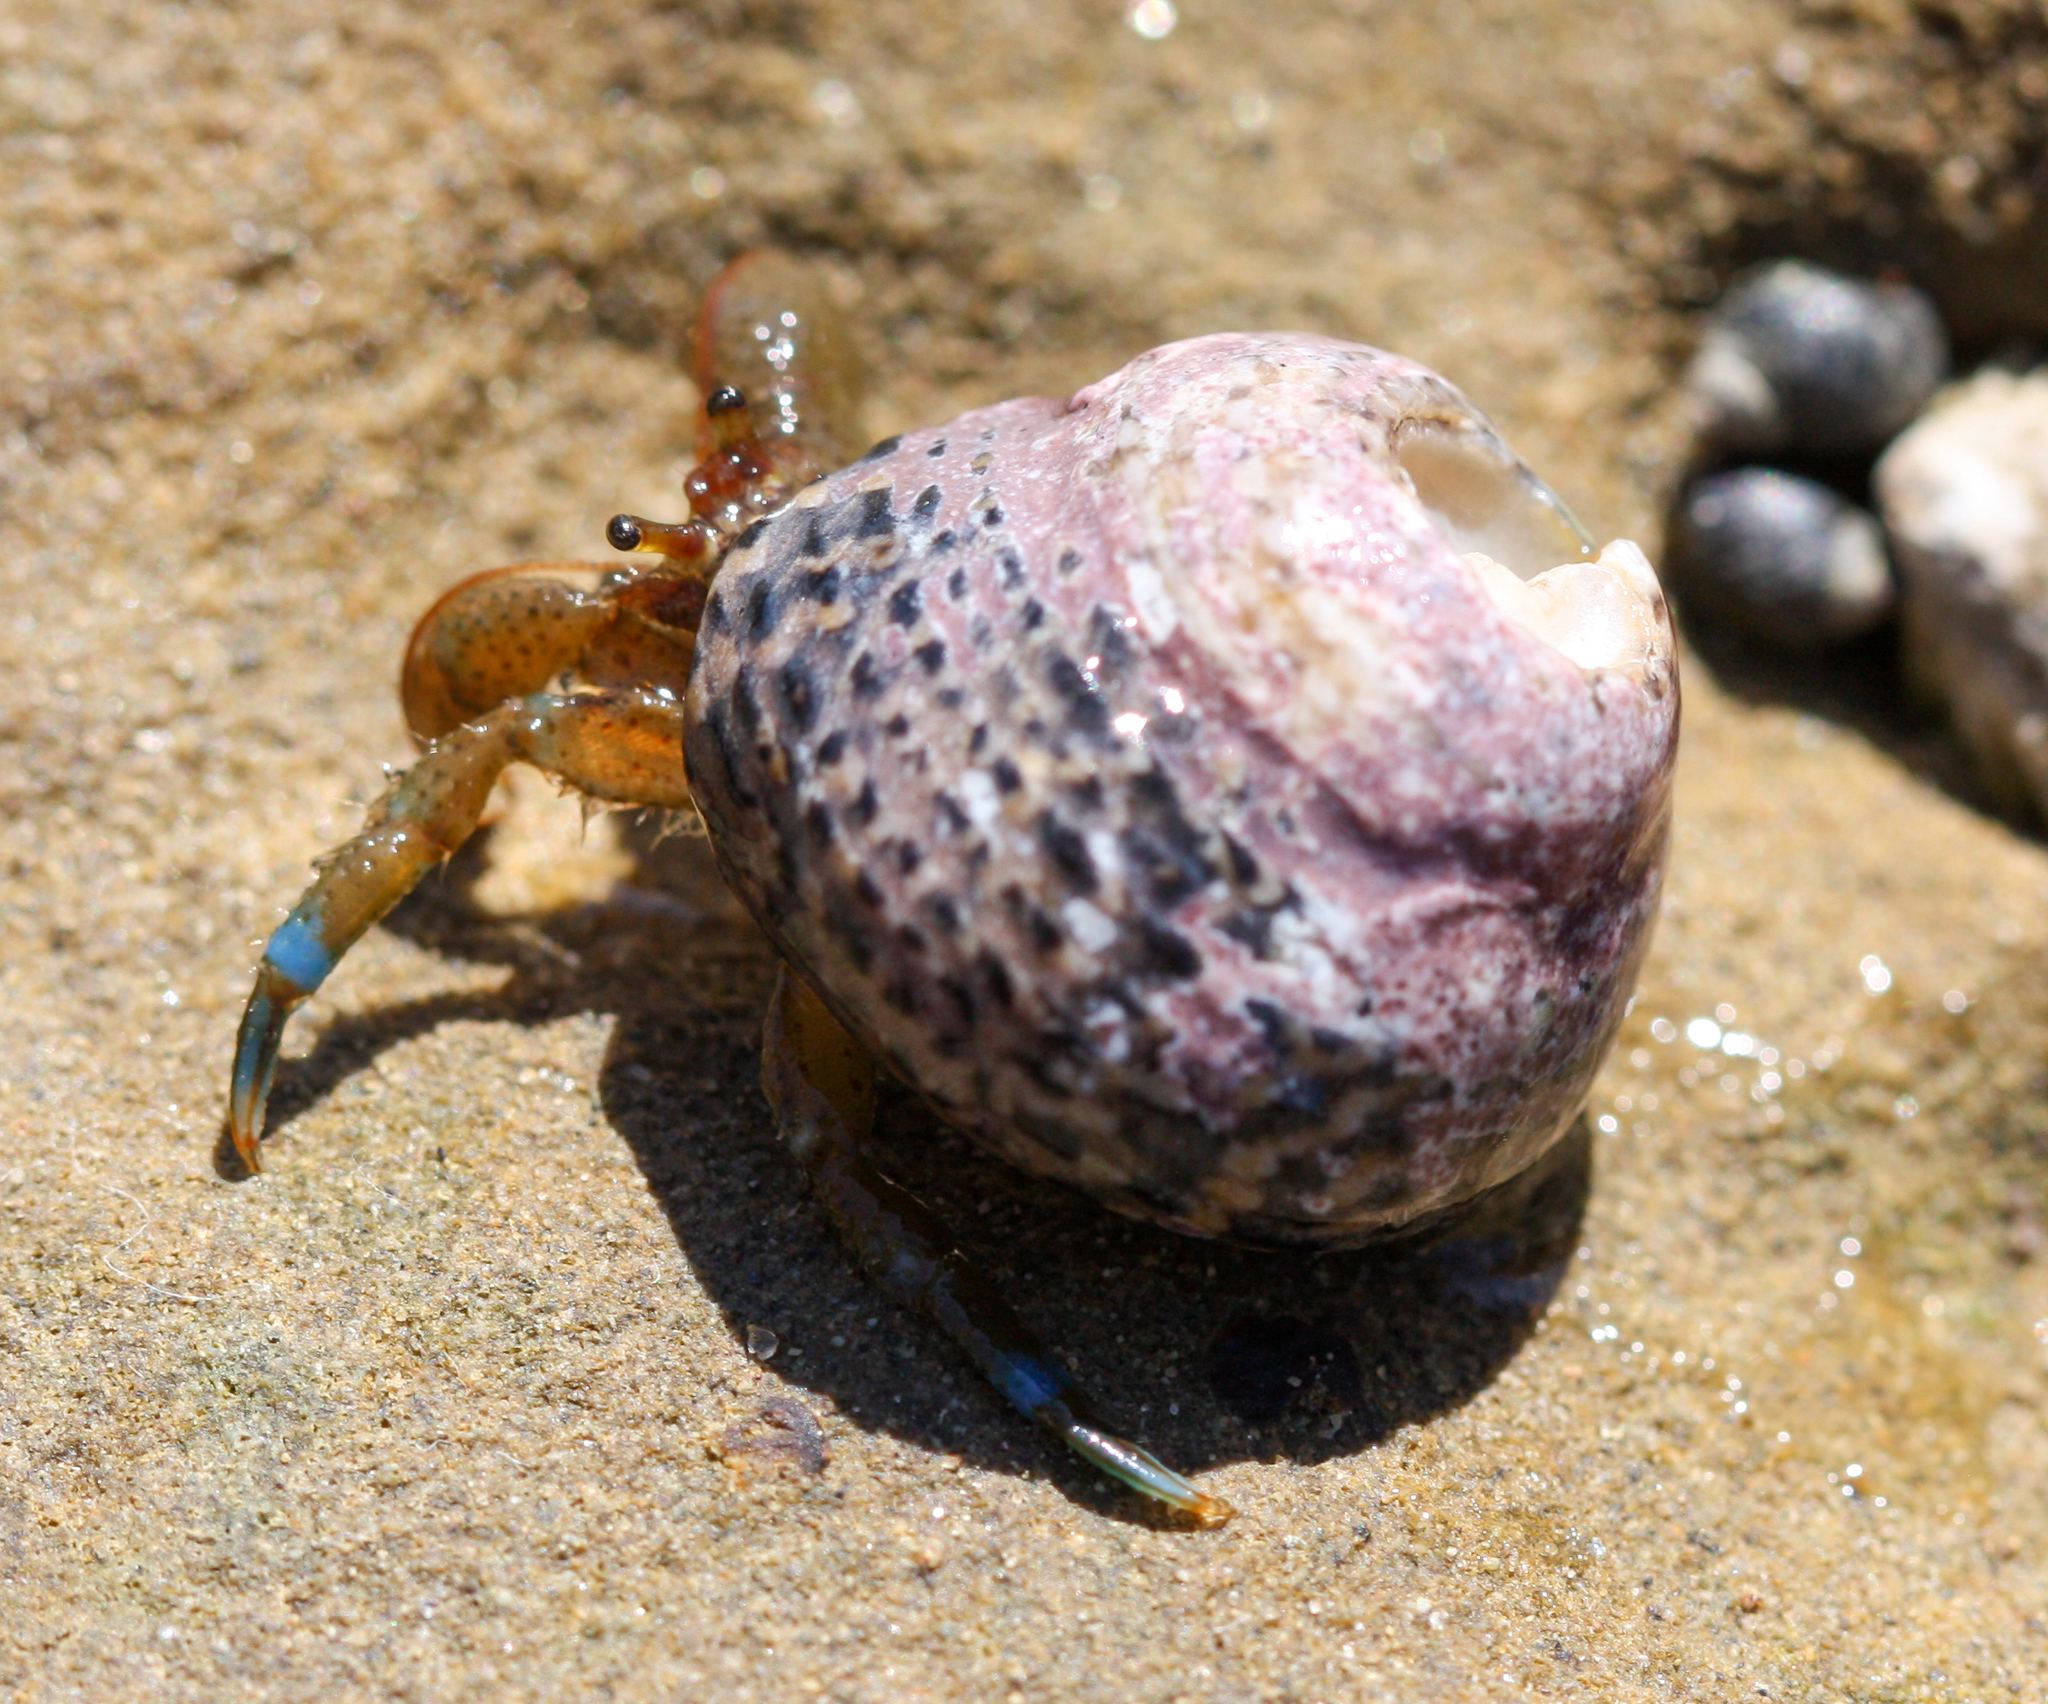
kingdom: Animalia
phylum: Arthropoda
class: Malacostraca
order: Decapoda
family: Paguridae
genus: Pagurus
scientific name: Pagurus samuelis
